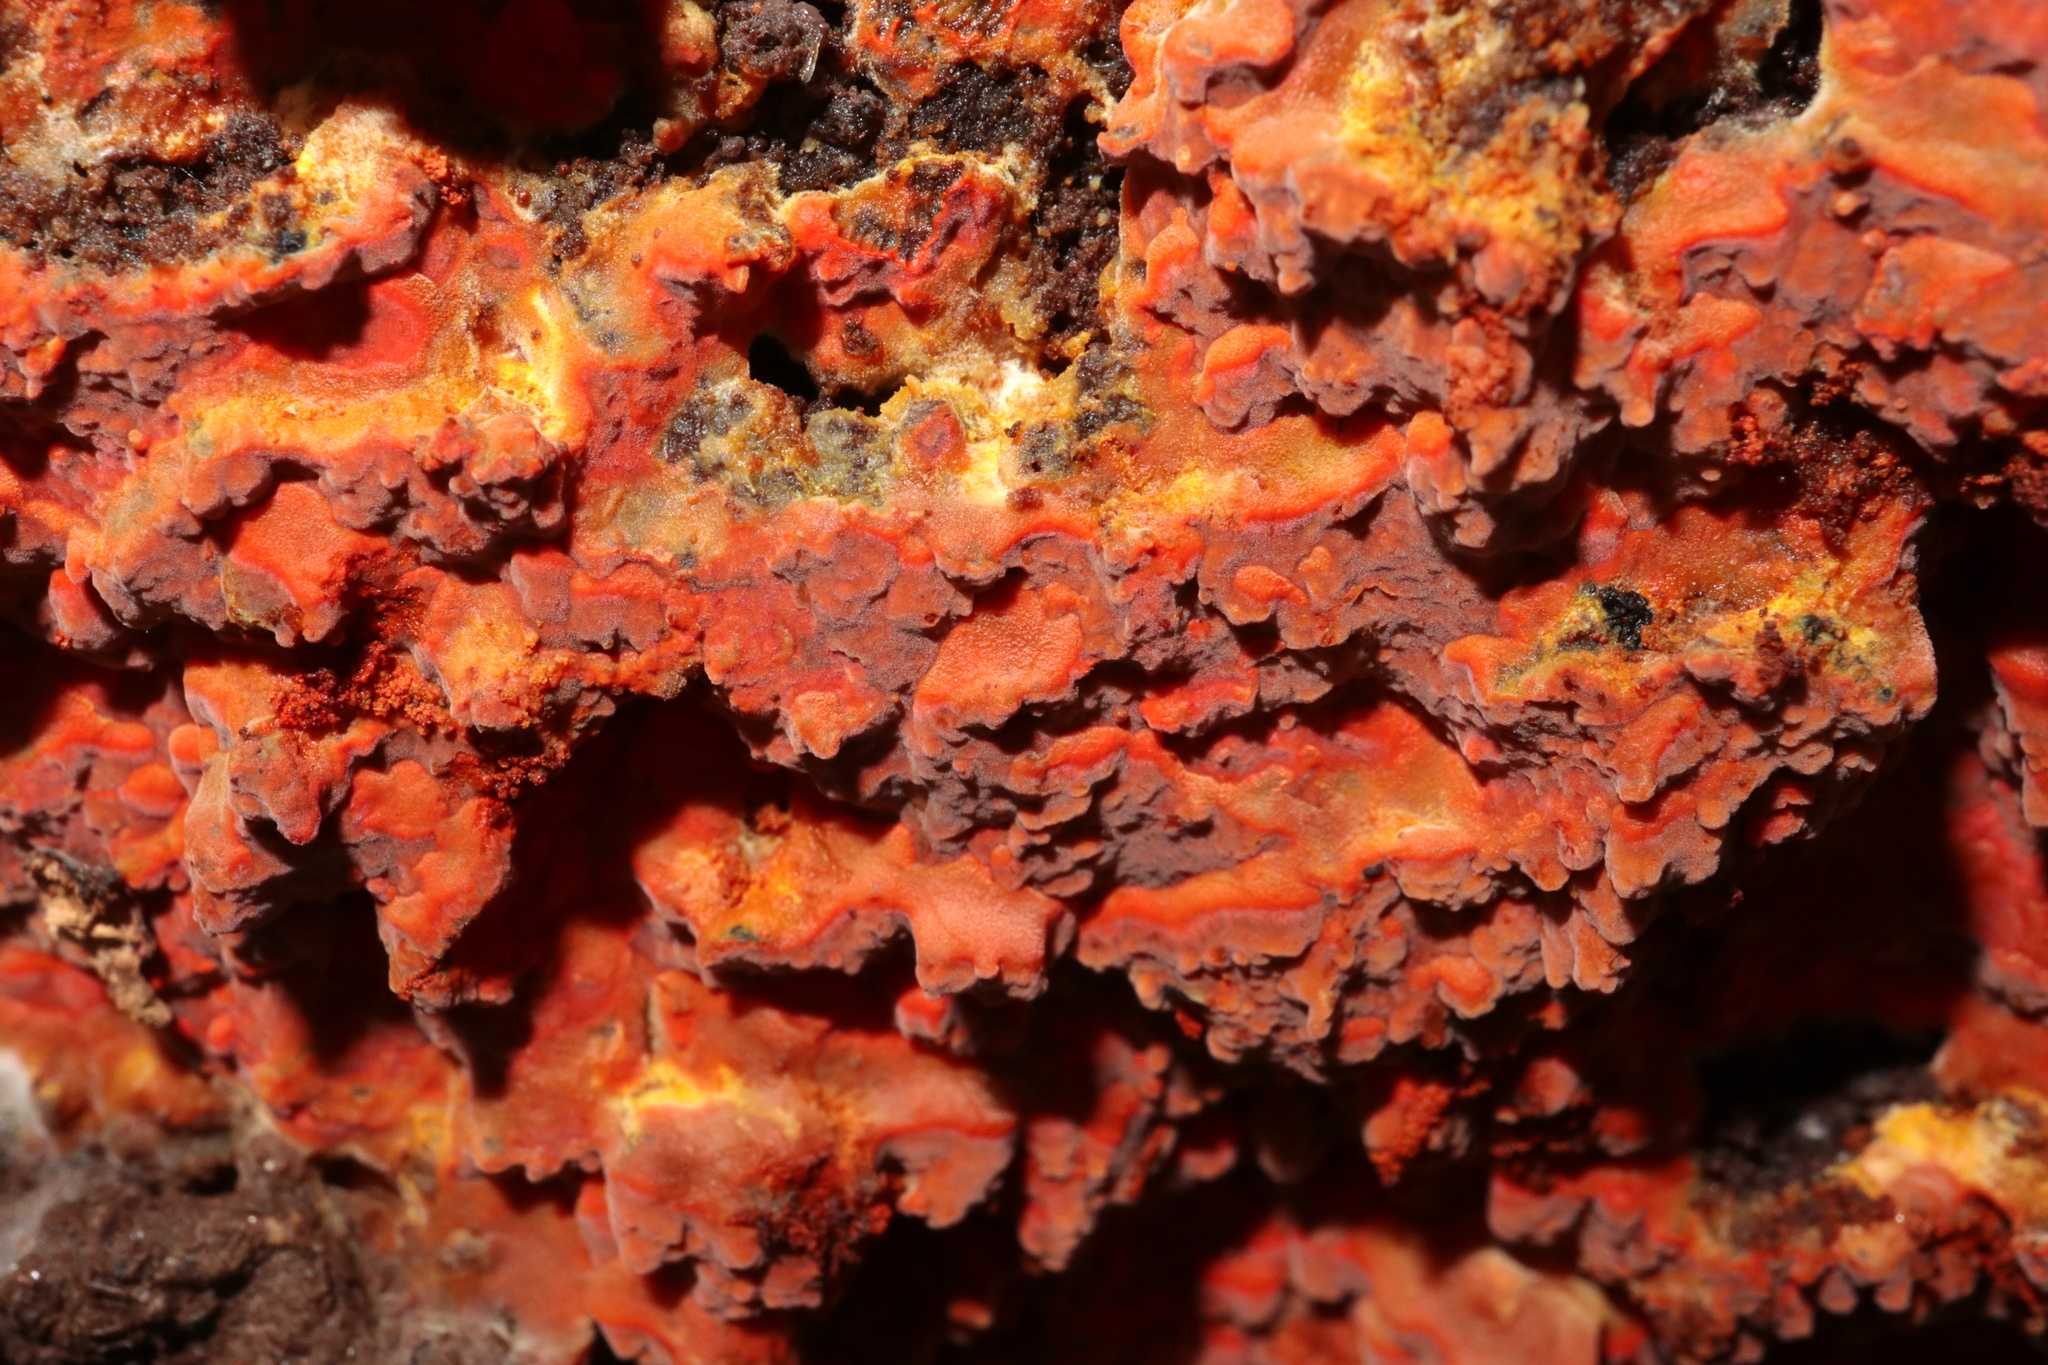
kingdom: Fungi
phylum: Basidiomycota
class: Agaricomycetes
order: Polyporales
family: Meruliaceae
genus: Phlebia
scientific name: Phlebia coccineofulva
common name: Scarlet waxcrust
